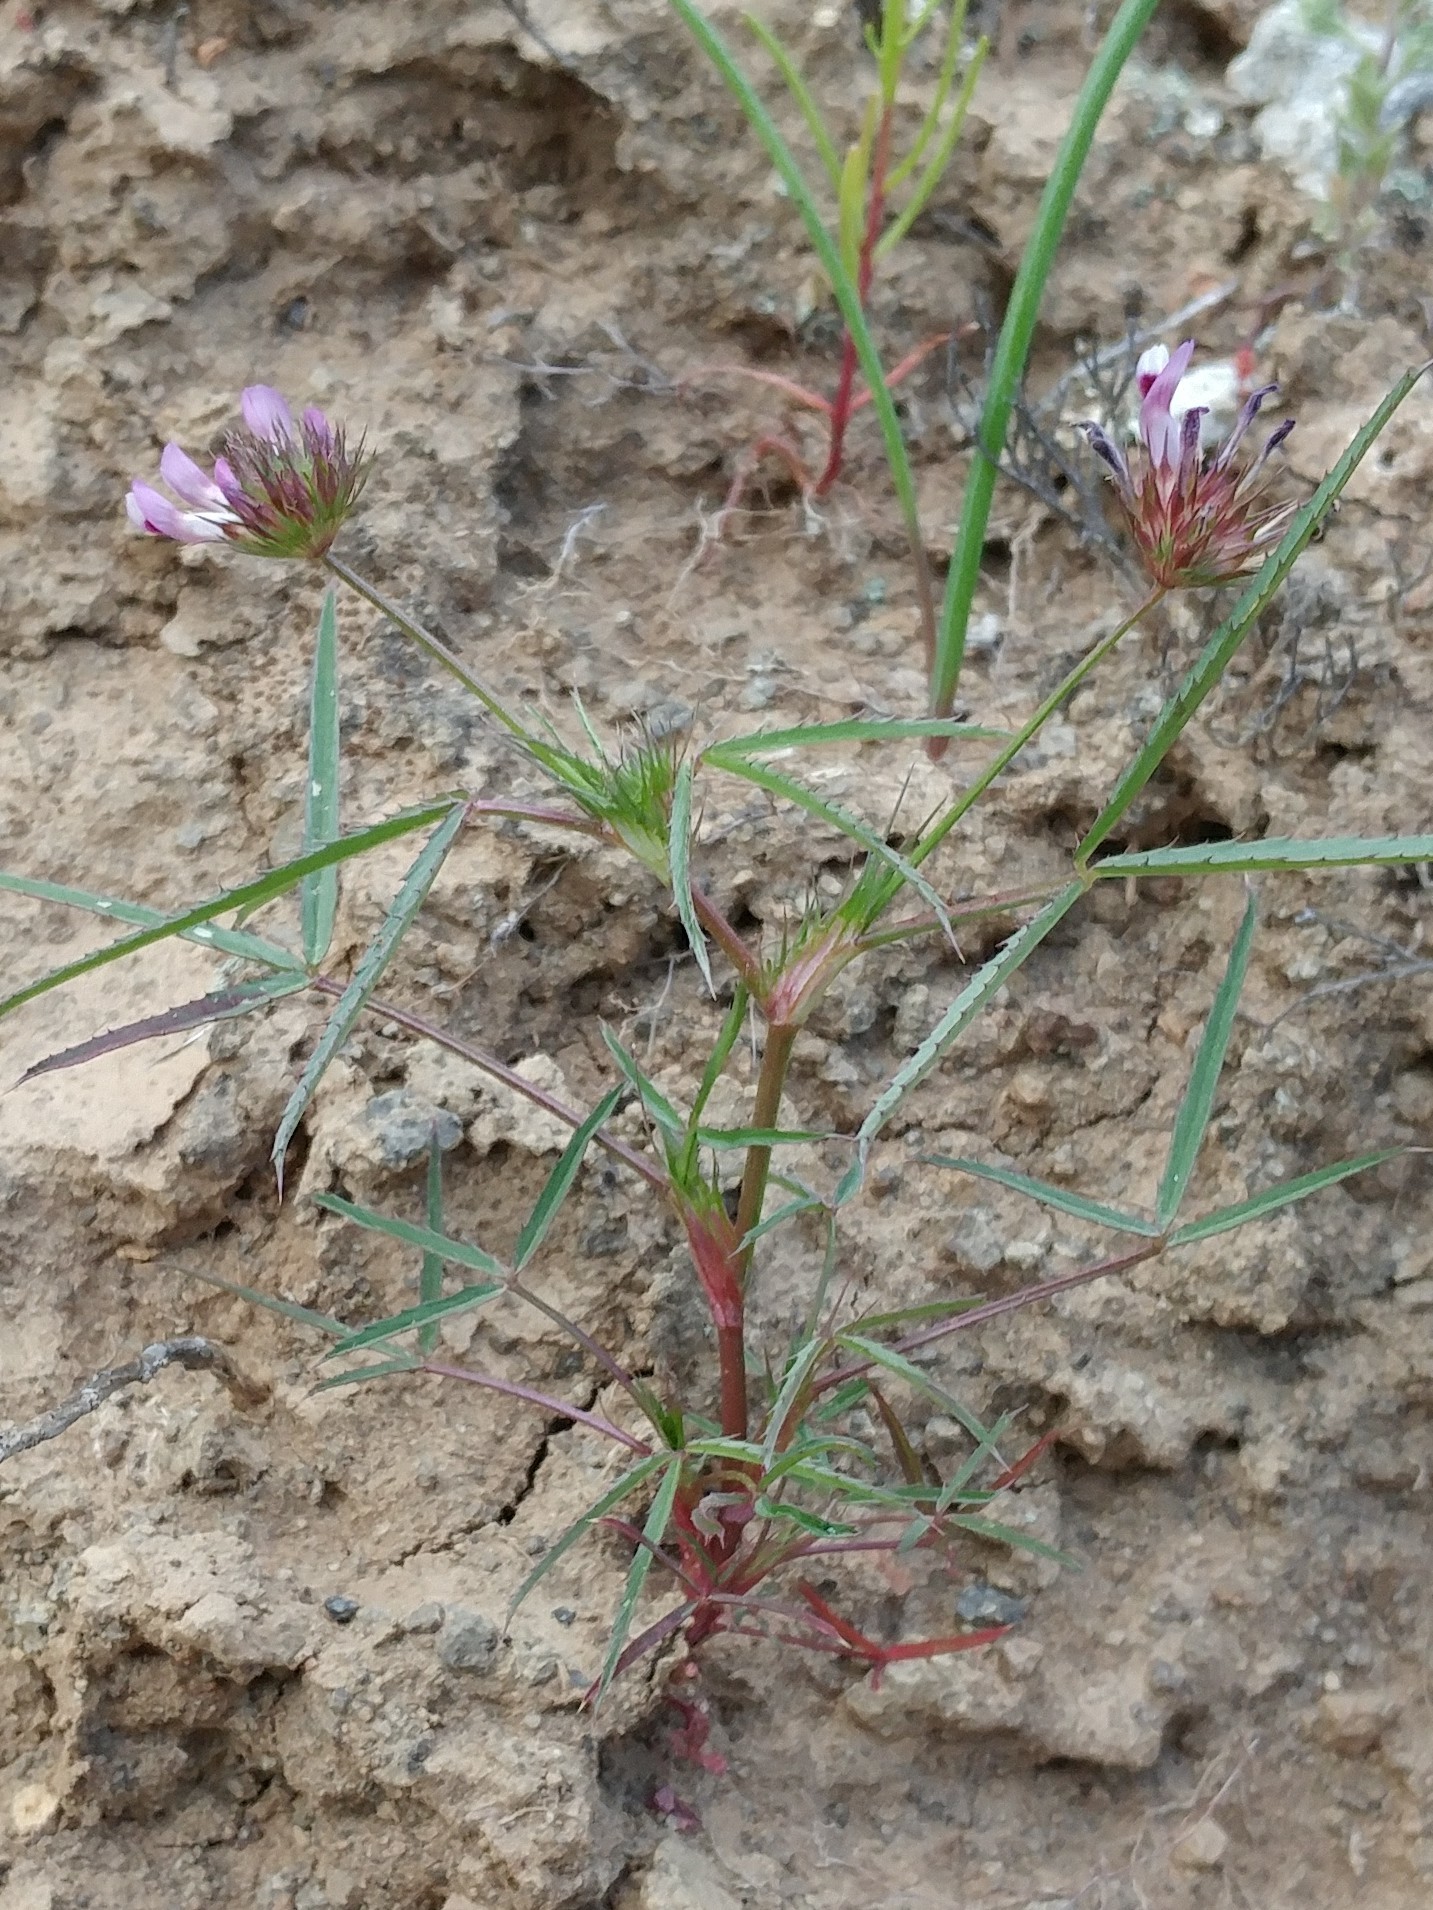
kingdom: Plantae
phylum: Tracheophyta
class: Magnoliopsida
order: Fabales
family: Fabaceae
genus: Trifolium
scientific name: Trifolium willdenovii
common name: Tomcat clover
